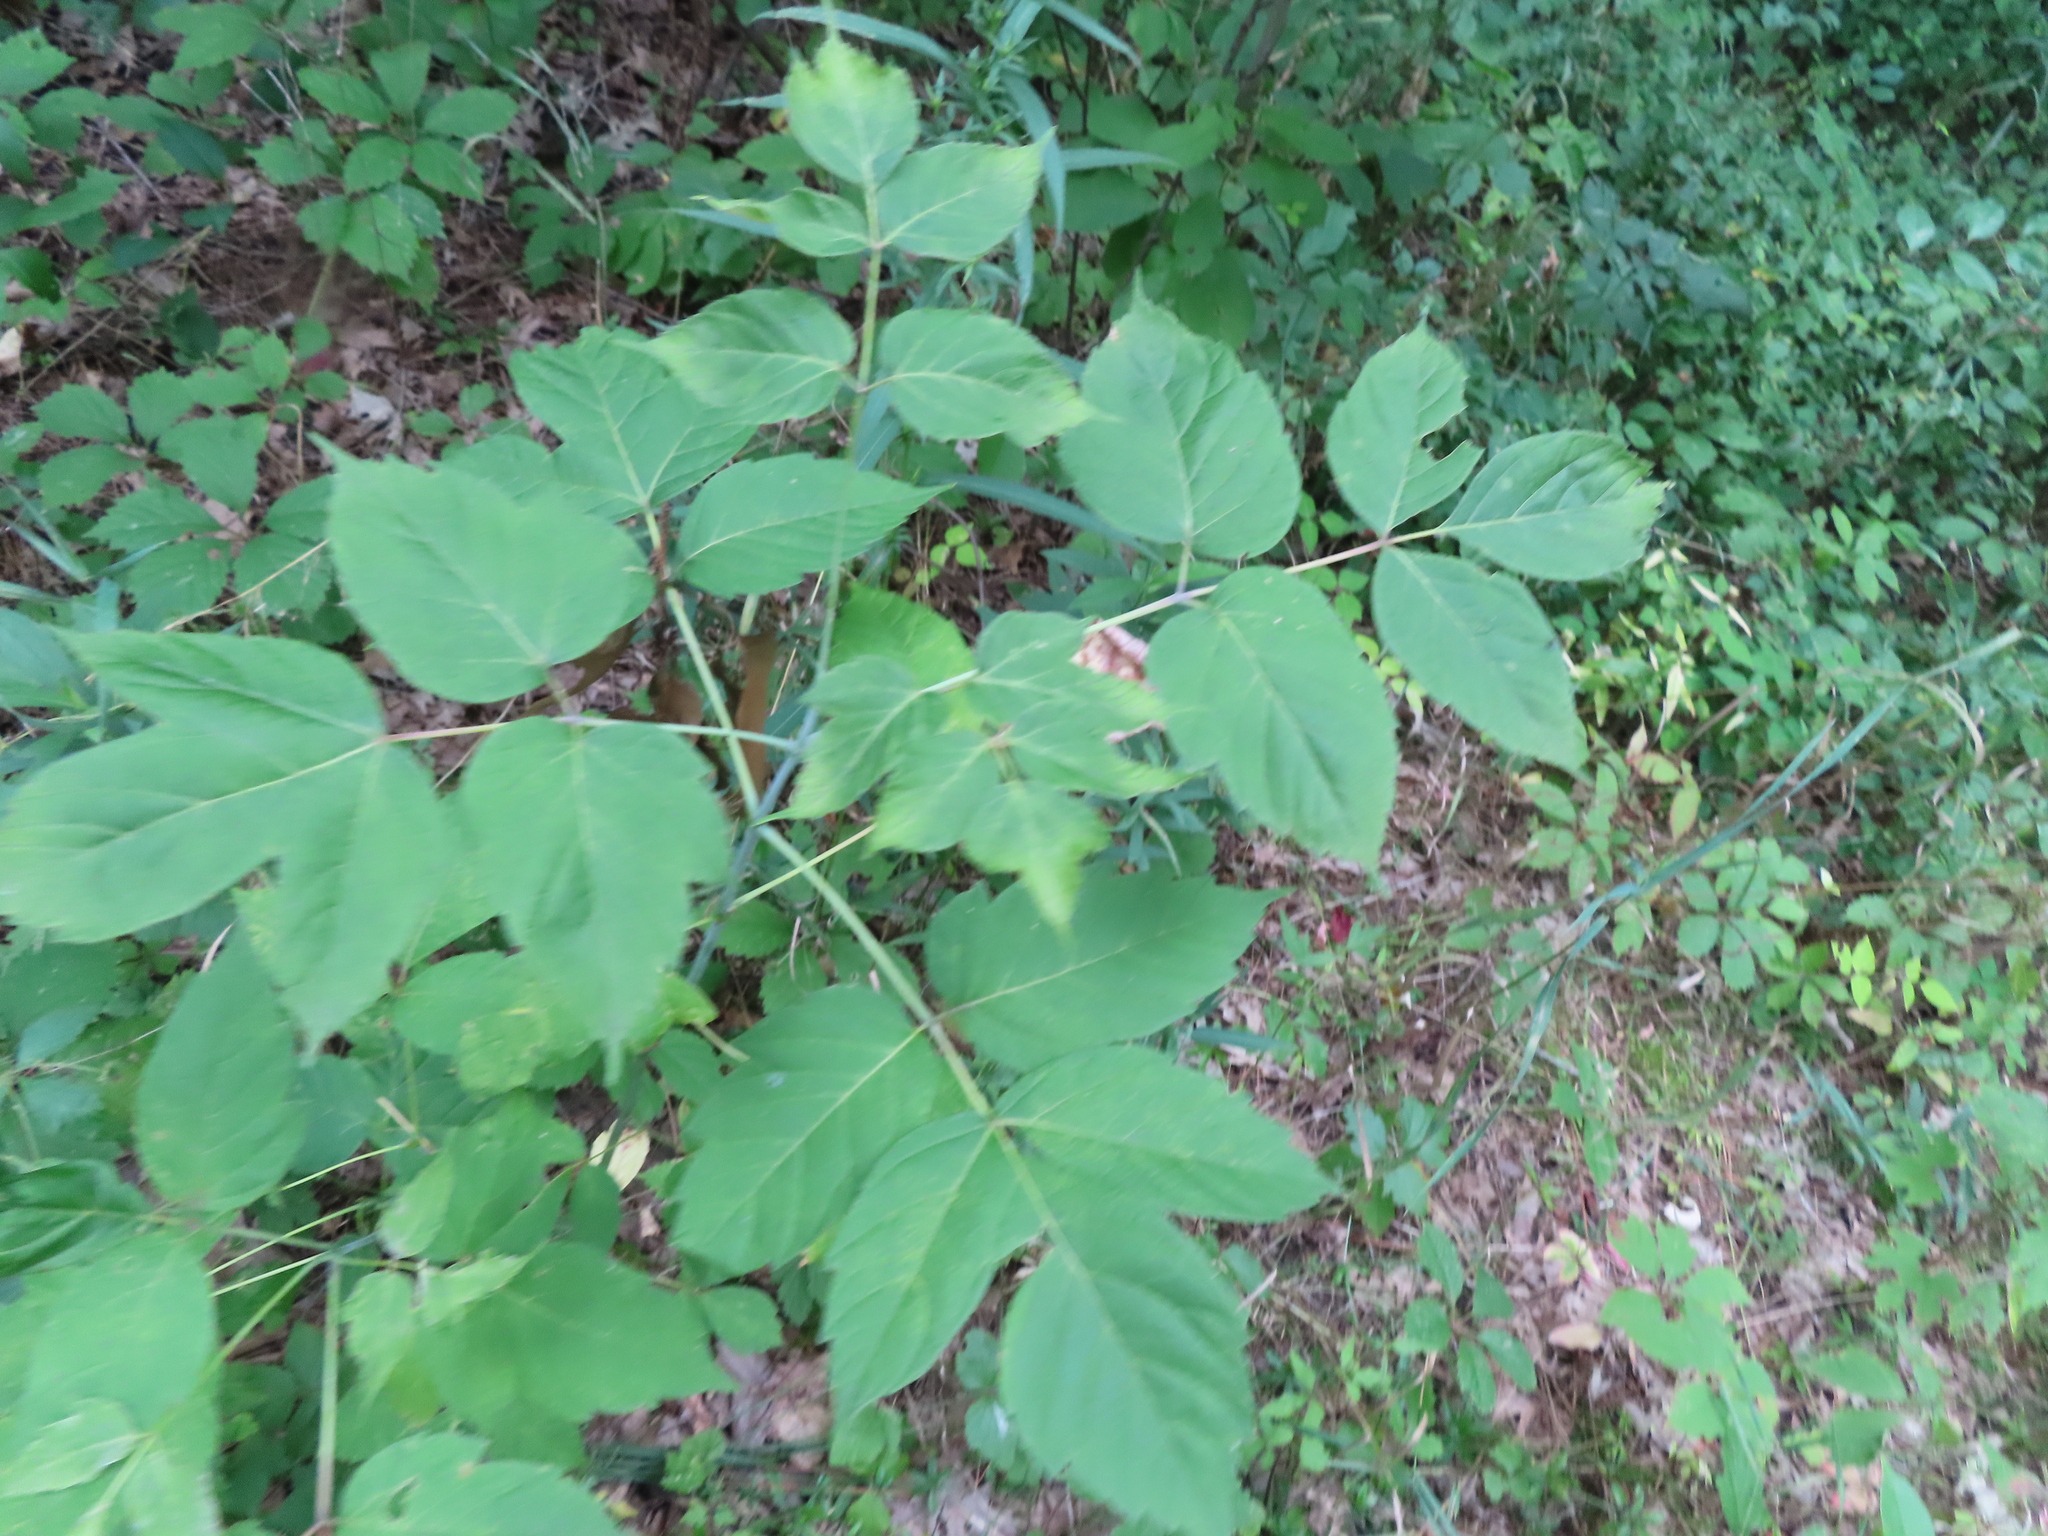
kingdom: Plantae
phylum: Tracheophyta
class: Magnoliopsida
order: Sapindales
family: Sapindaceae
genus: Acer
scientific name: Acer negundo
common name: Ashleaf maple
